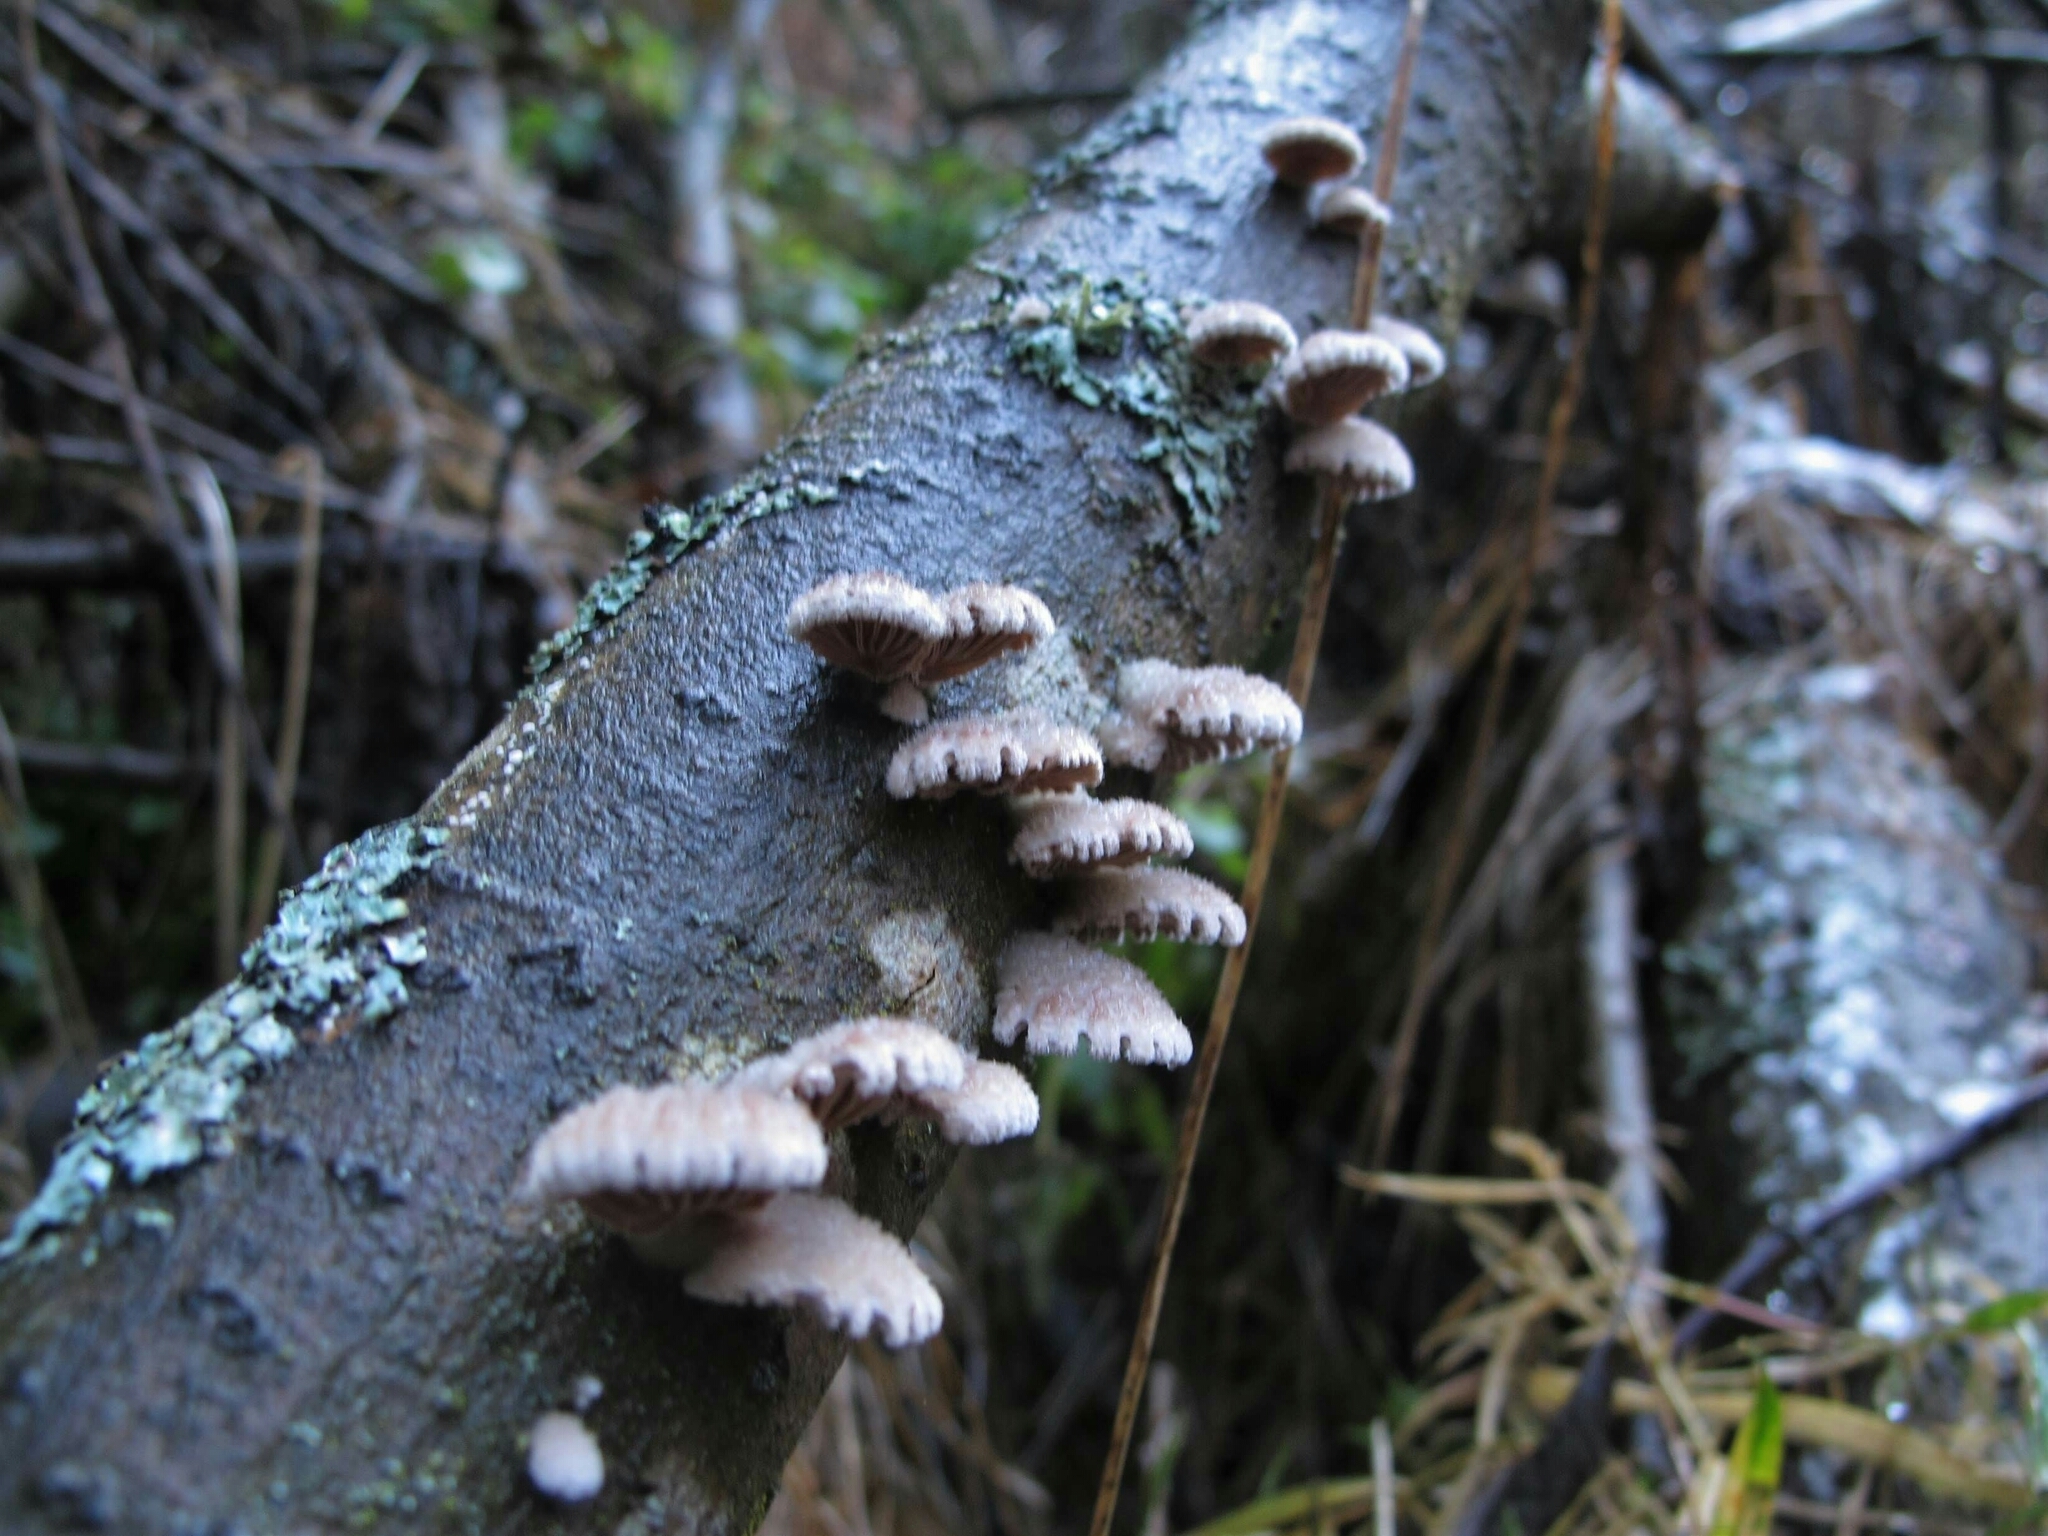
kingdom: Fungi
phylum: Basidiomycota
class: Agaricomycetes
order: Agaricales
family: Schizophyllaceae
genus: Schizophyllum
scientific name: Schizophyllum commune
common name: Common porecrust
